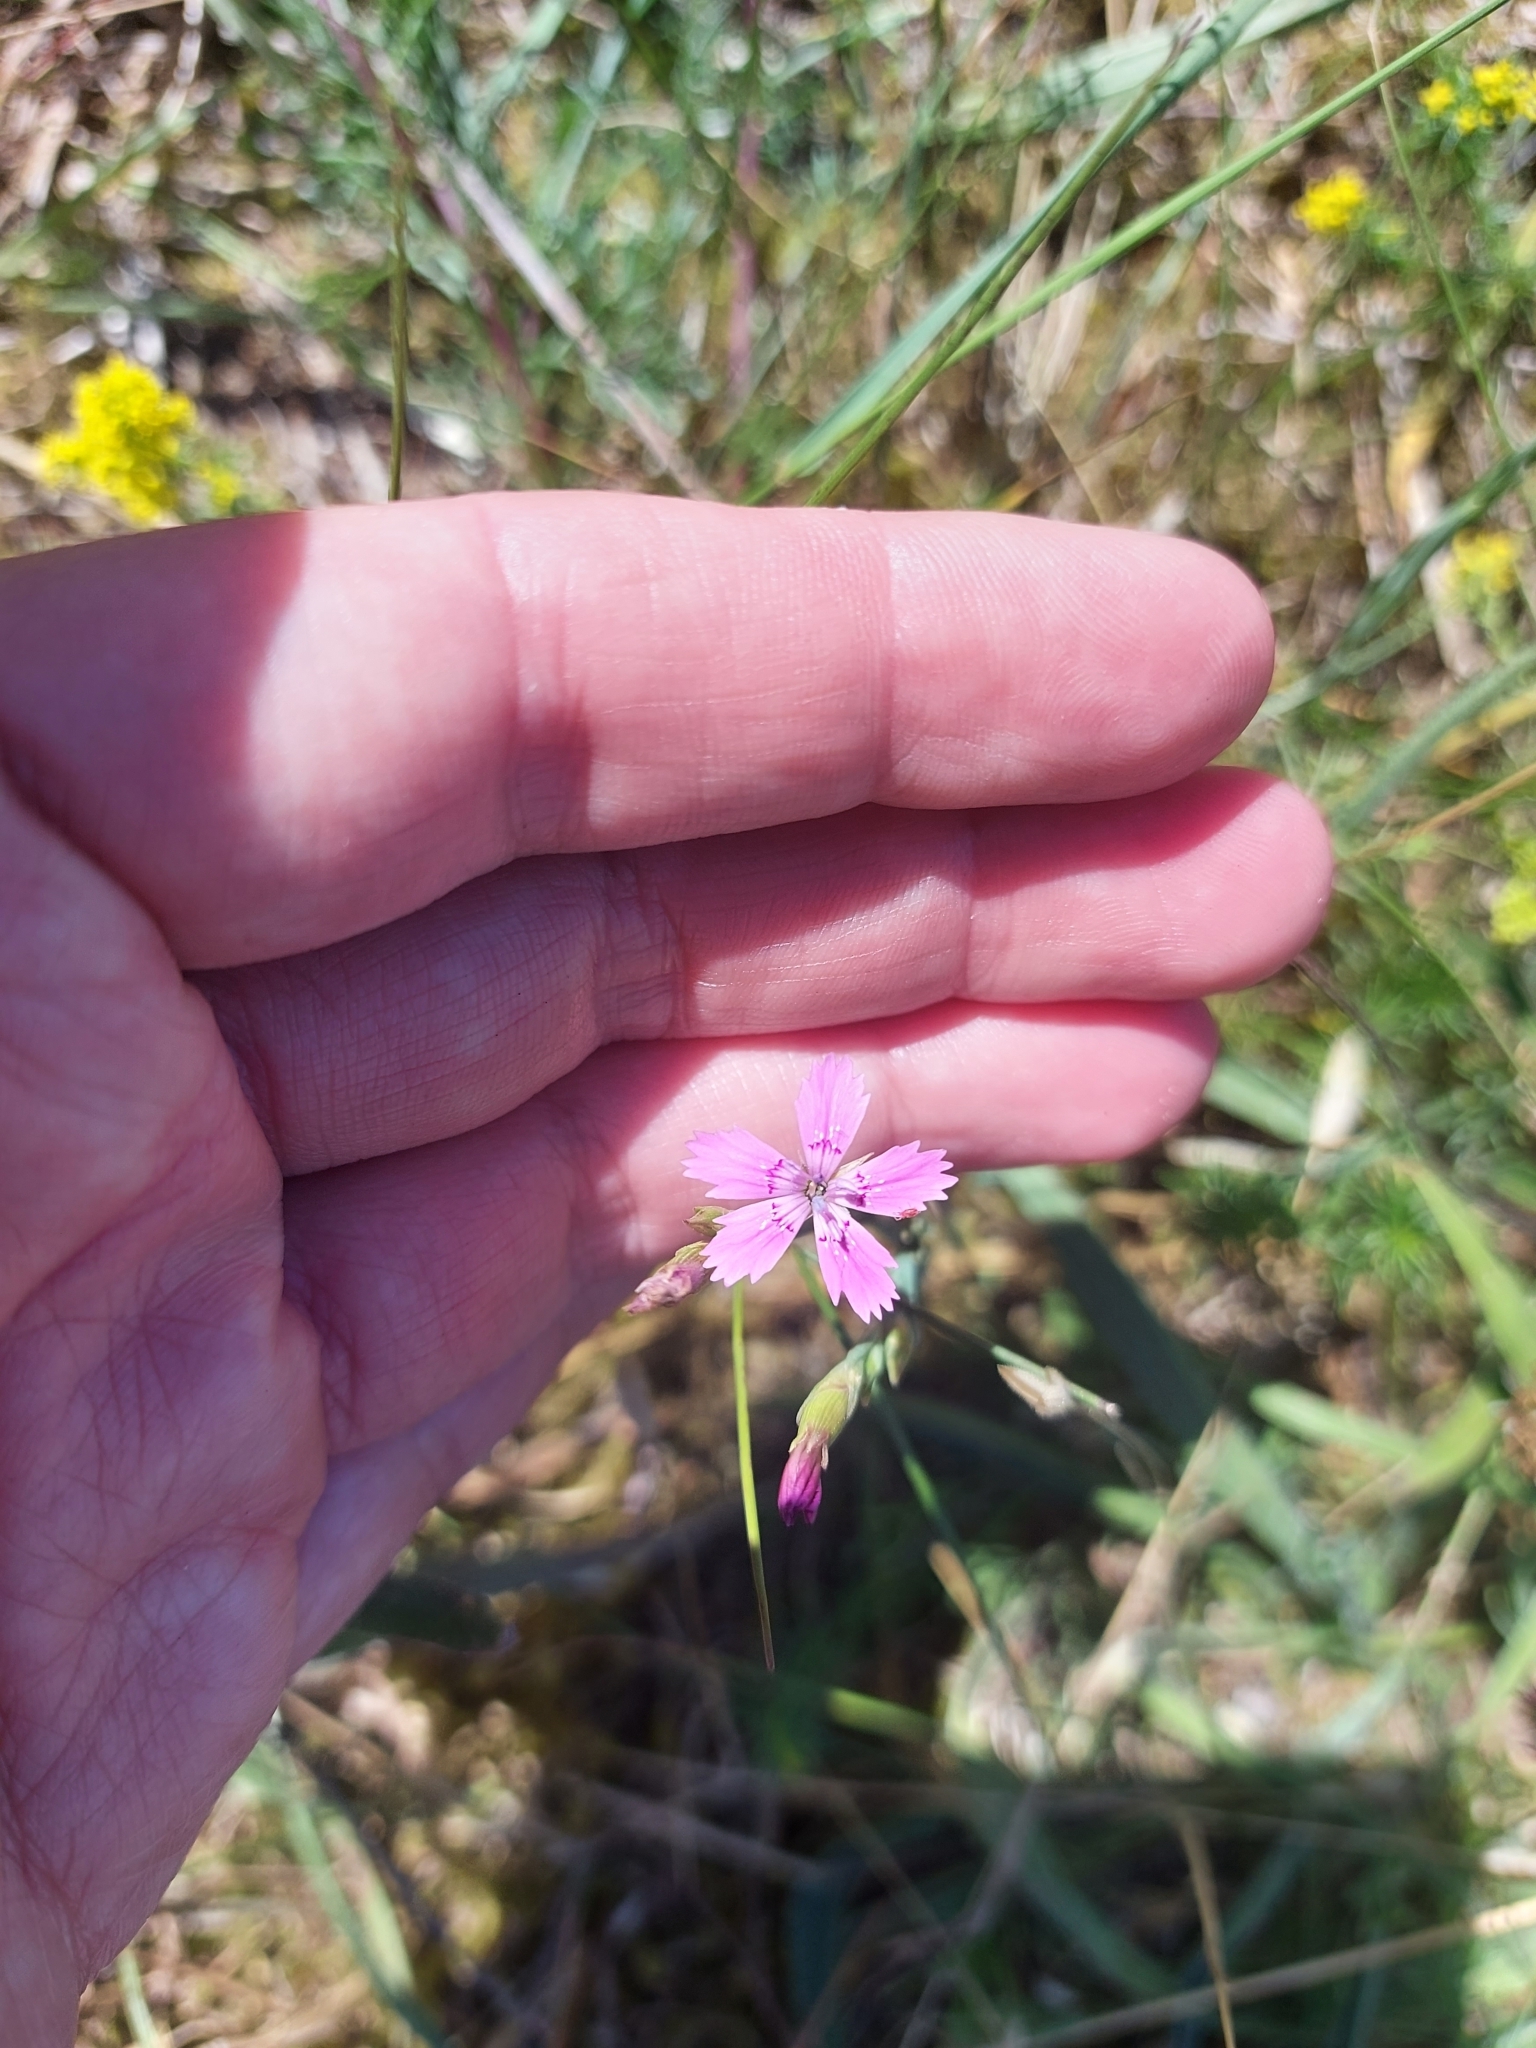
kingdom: Plantae
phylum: Tracheophyta
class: Magnoliopsida
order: Caryophyllales
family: Caryophyllaceae
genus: Dianthus
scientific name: Dianthus deltoides
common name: Maiden pink
